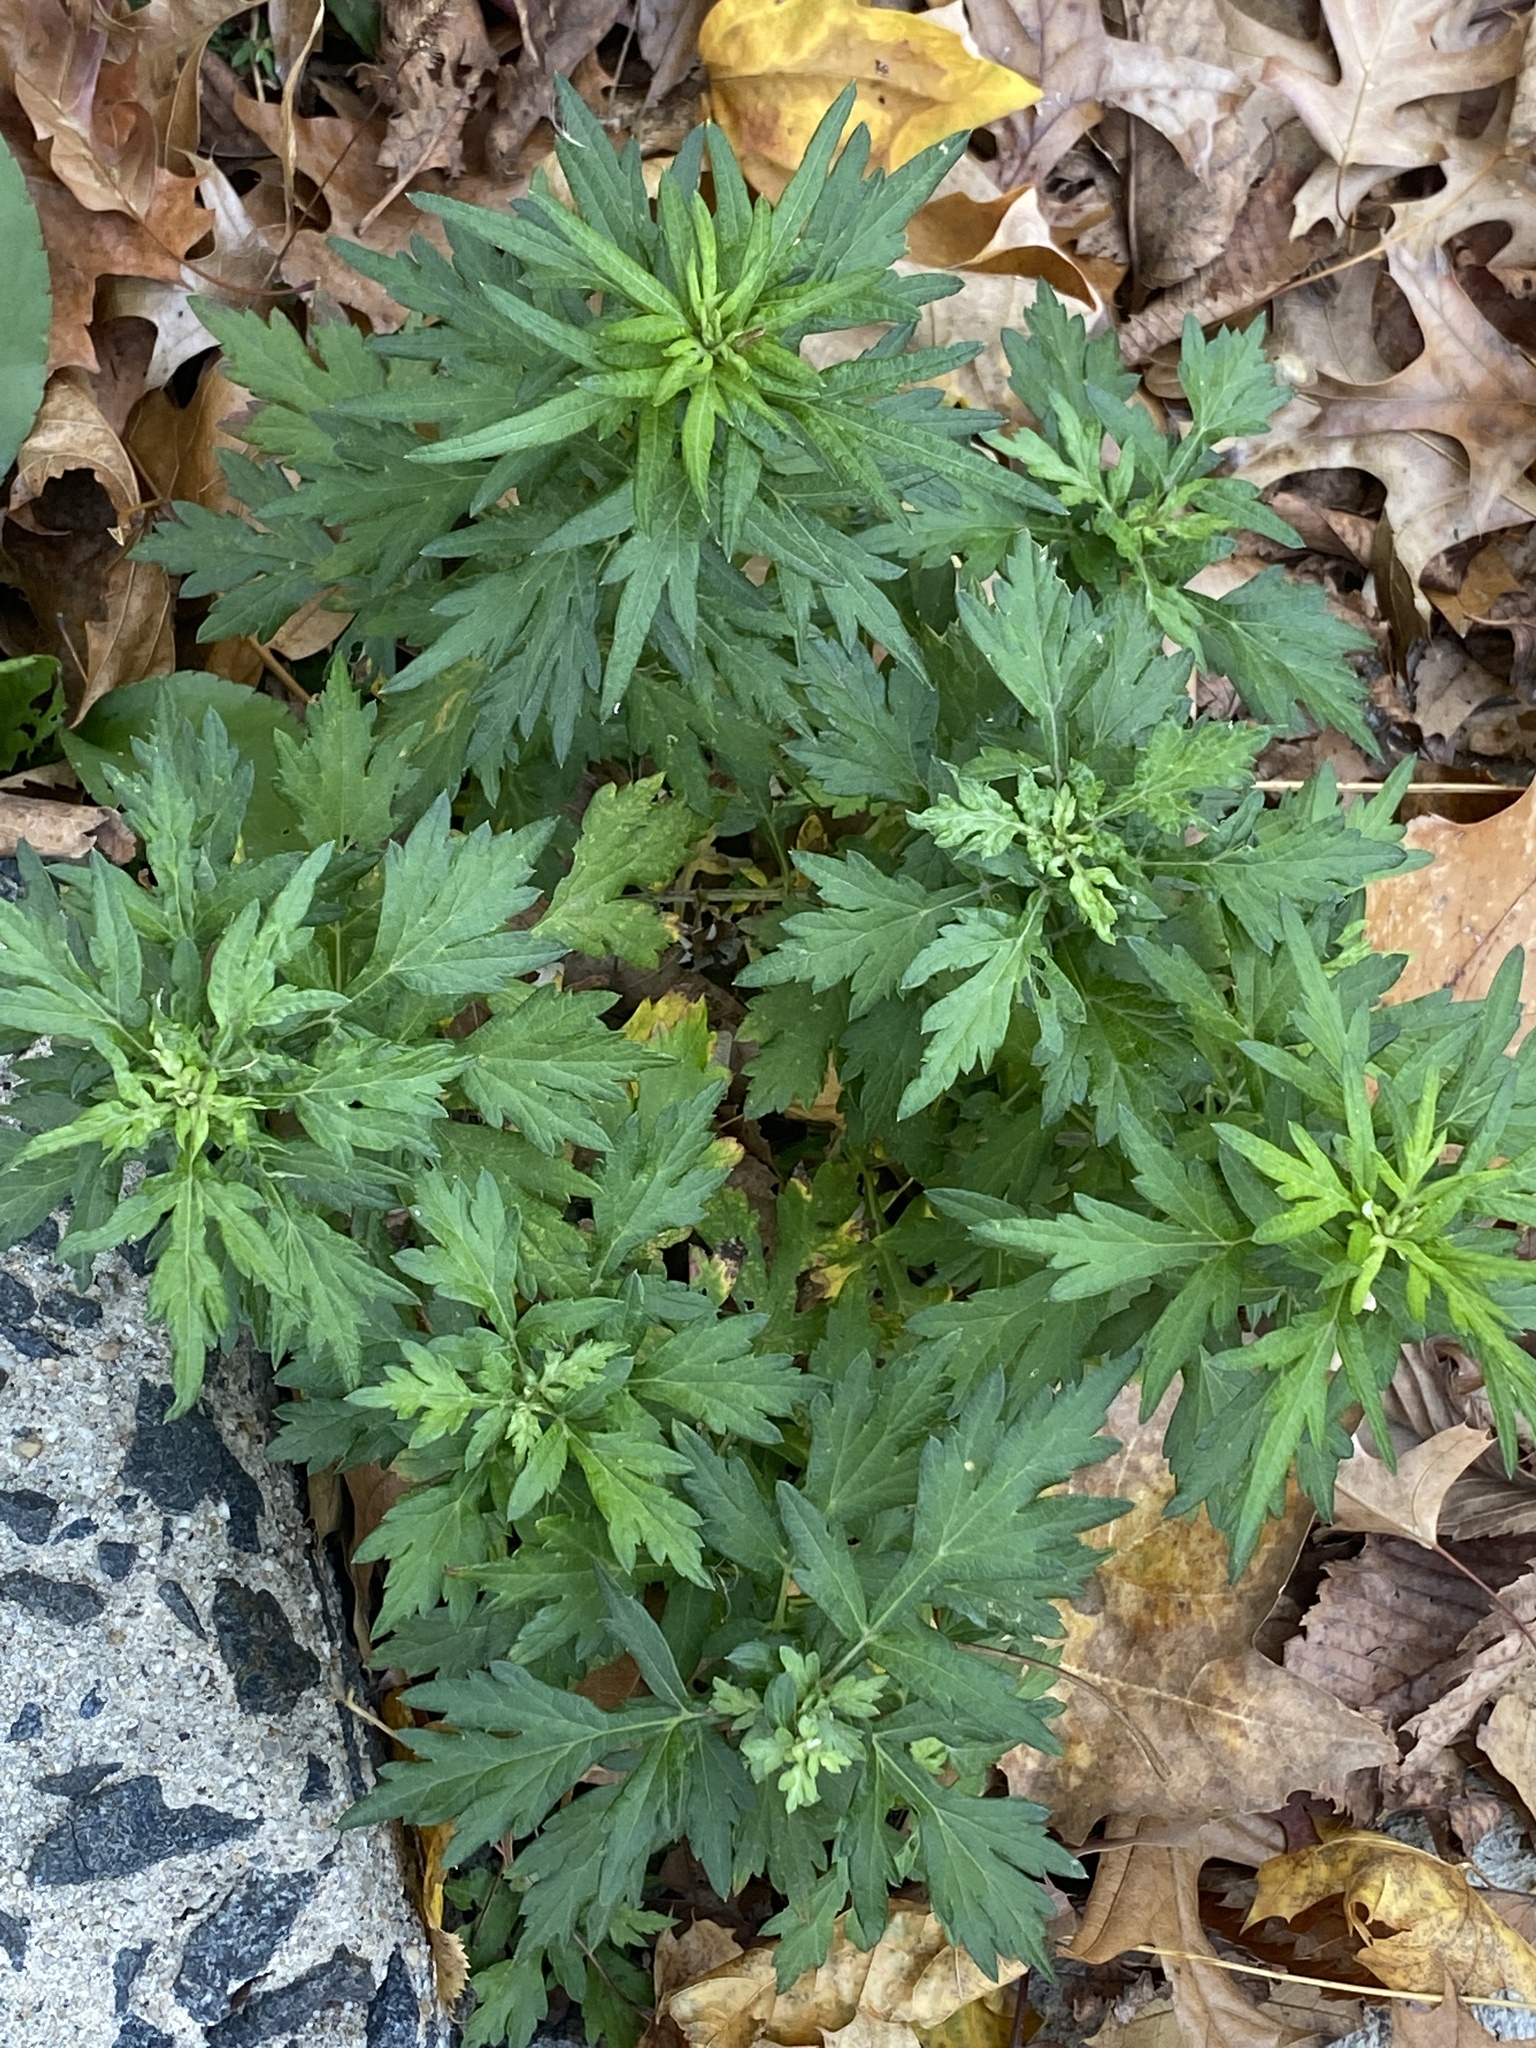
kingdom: Plantae
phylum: Tracheophyta
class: Magnoliopsida
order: Asterales
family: Asteraceae
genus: Artemisia
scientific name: Artemisia vulgaris
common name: Mugwort
